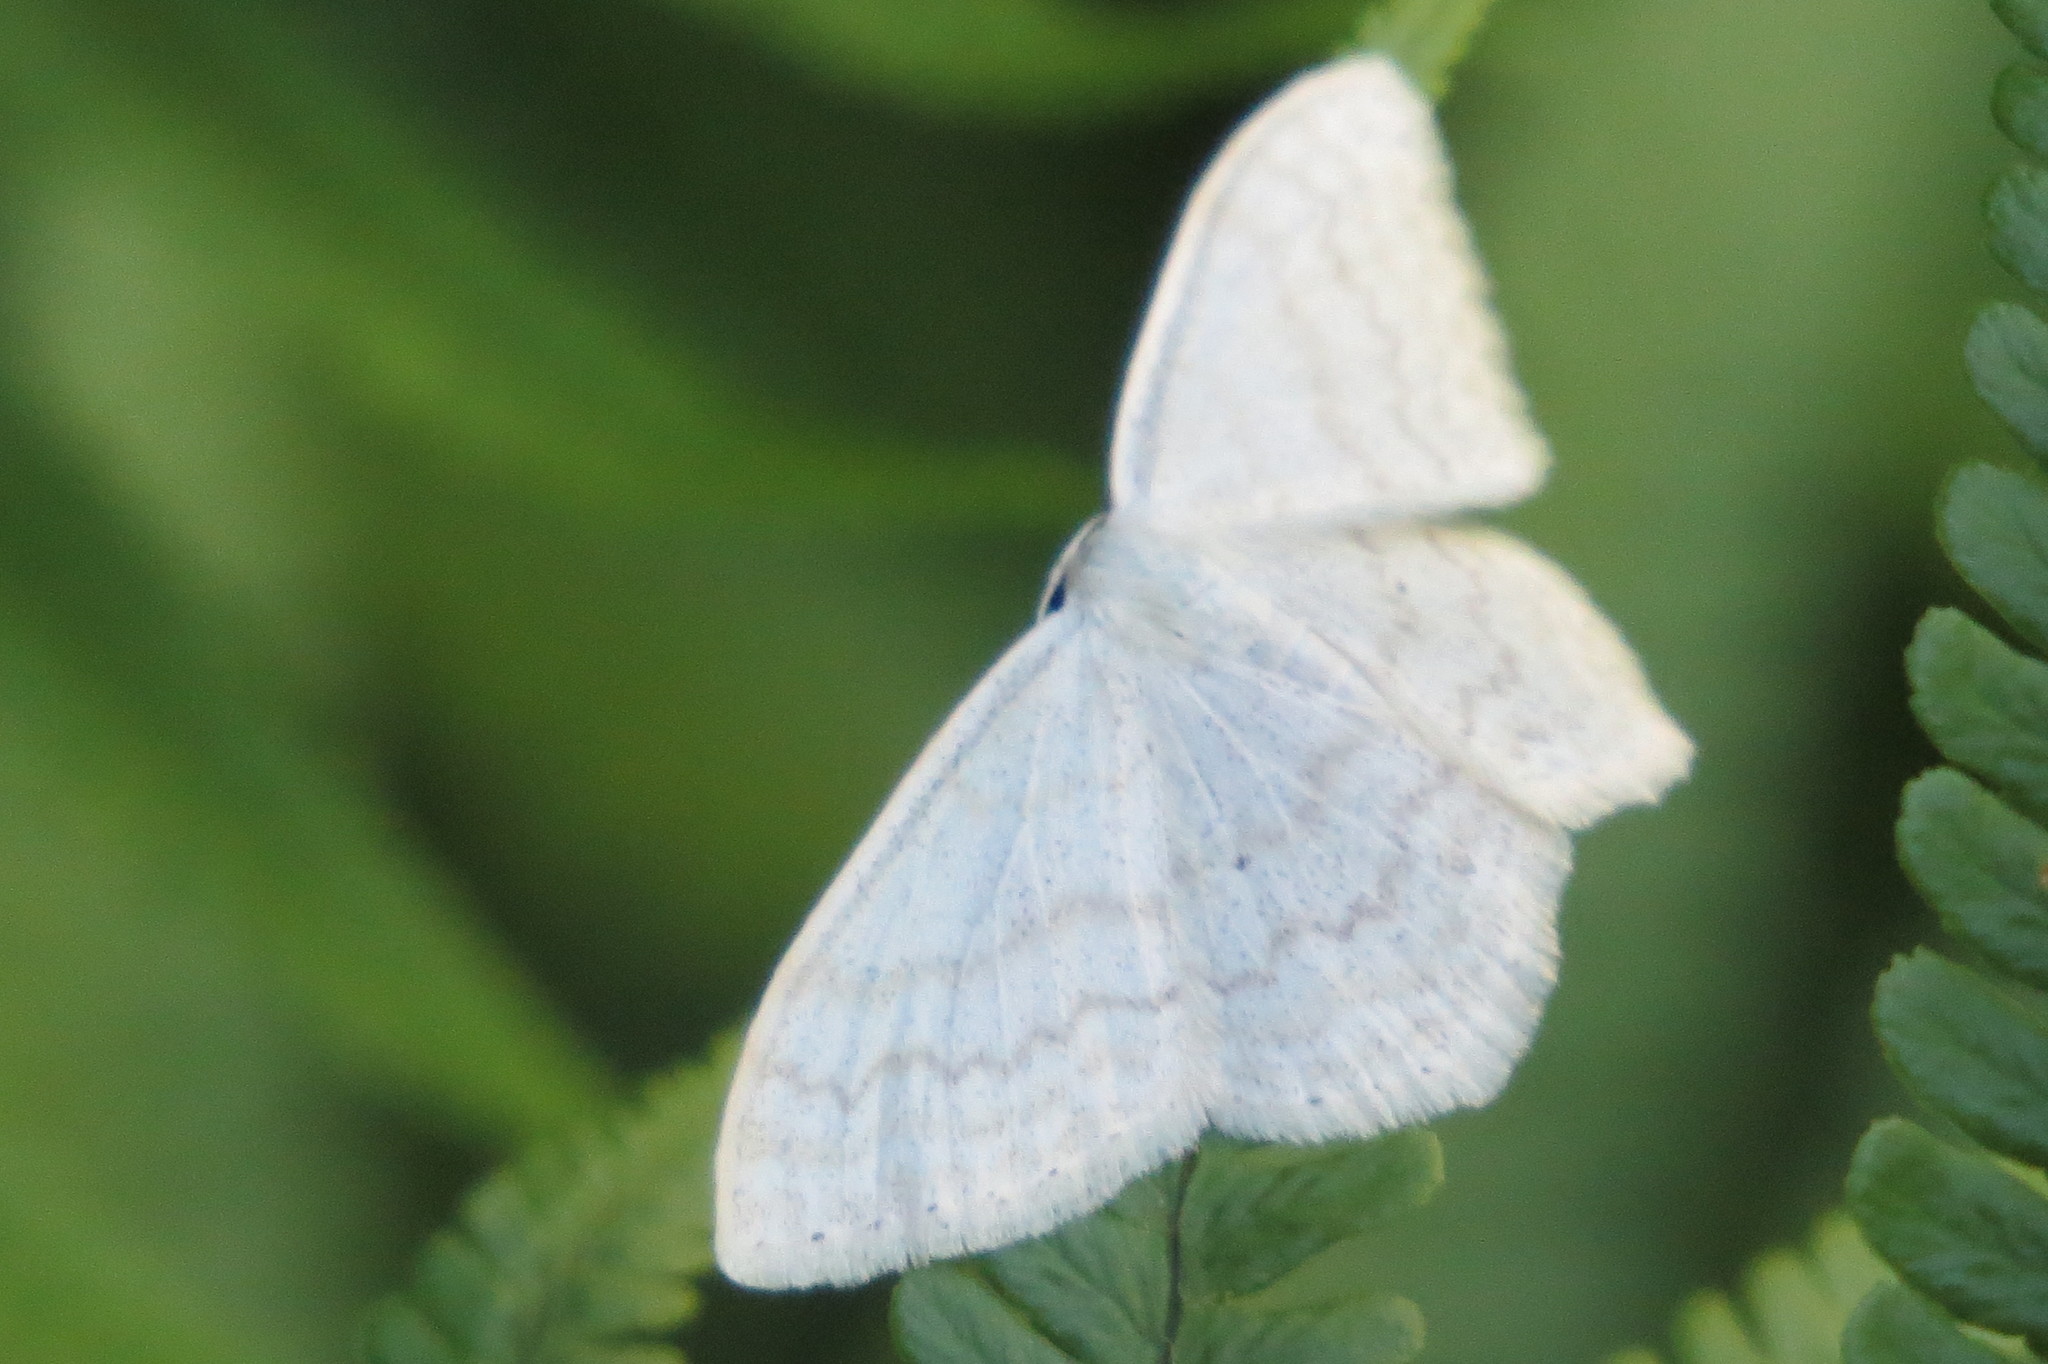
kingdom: Animalia
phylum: Arthropoda
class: Insecta
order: Lepidoptera
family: Geometridae
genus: Scopula
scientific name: Scopula floslactata
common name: Cream wave
